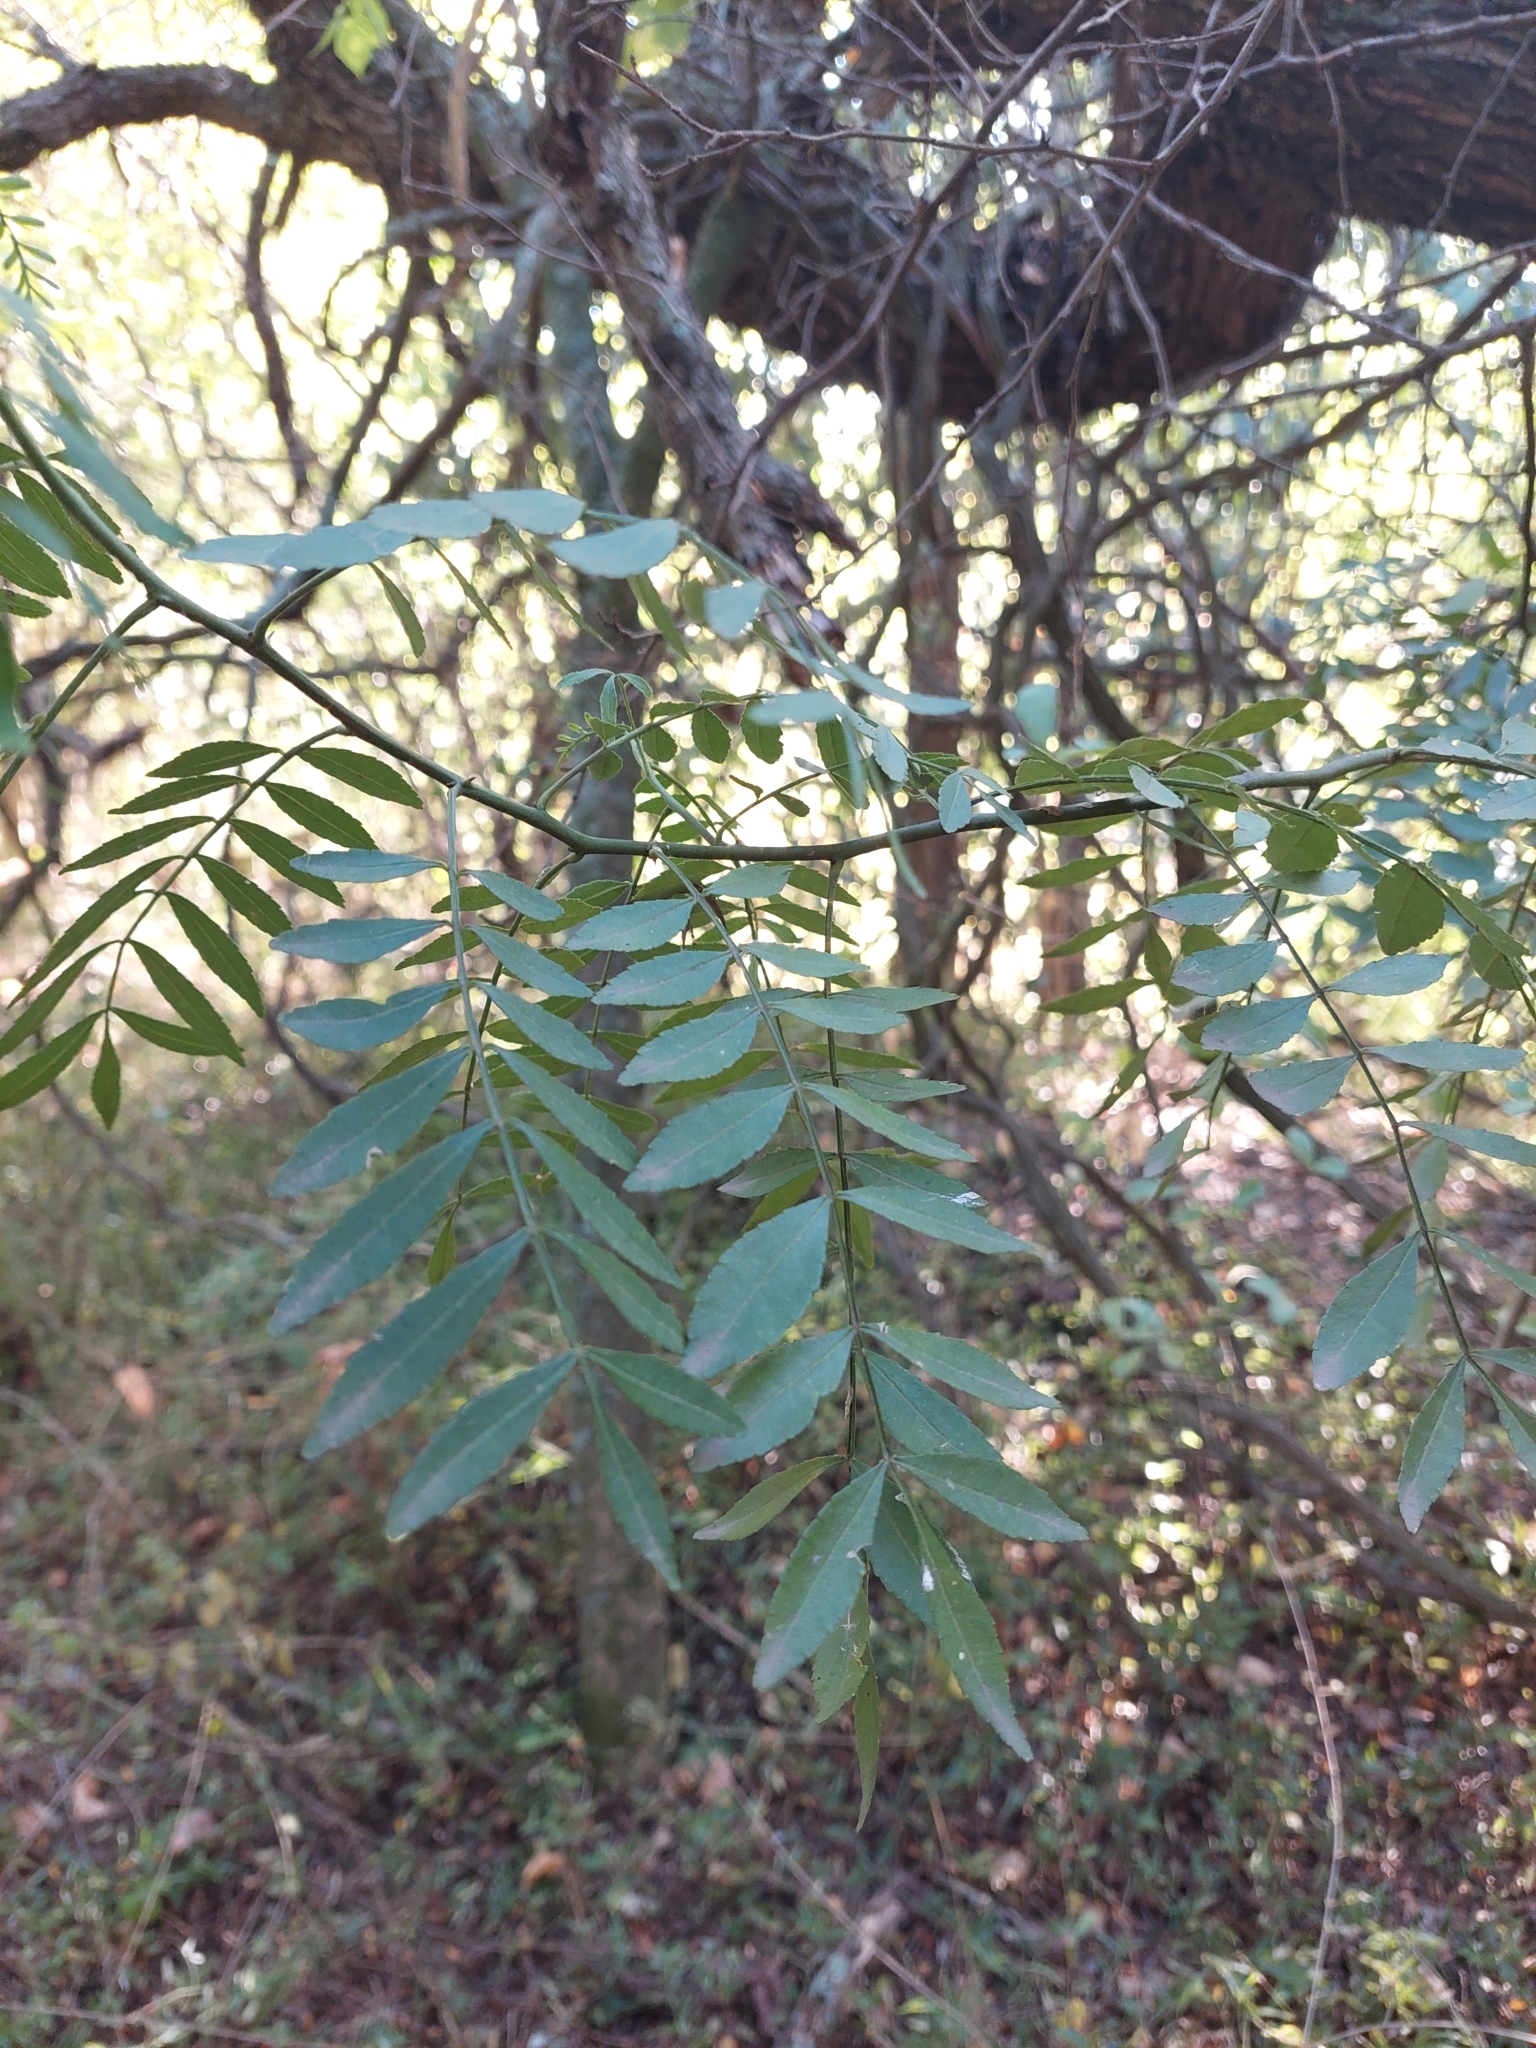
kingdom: Plantae
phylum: Tracheophyta
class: Magnoliopsida
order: Sapindales
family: Rutaceae
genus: Zanthoxylum
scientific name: Zanthoxylum fagara
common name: Lime prickly-ash
